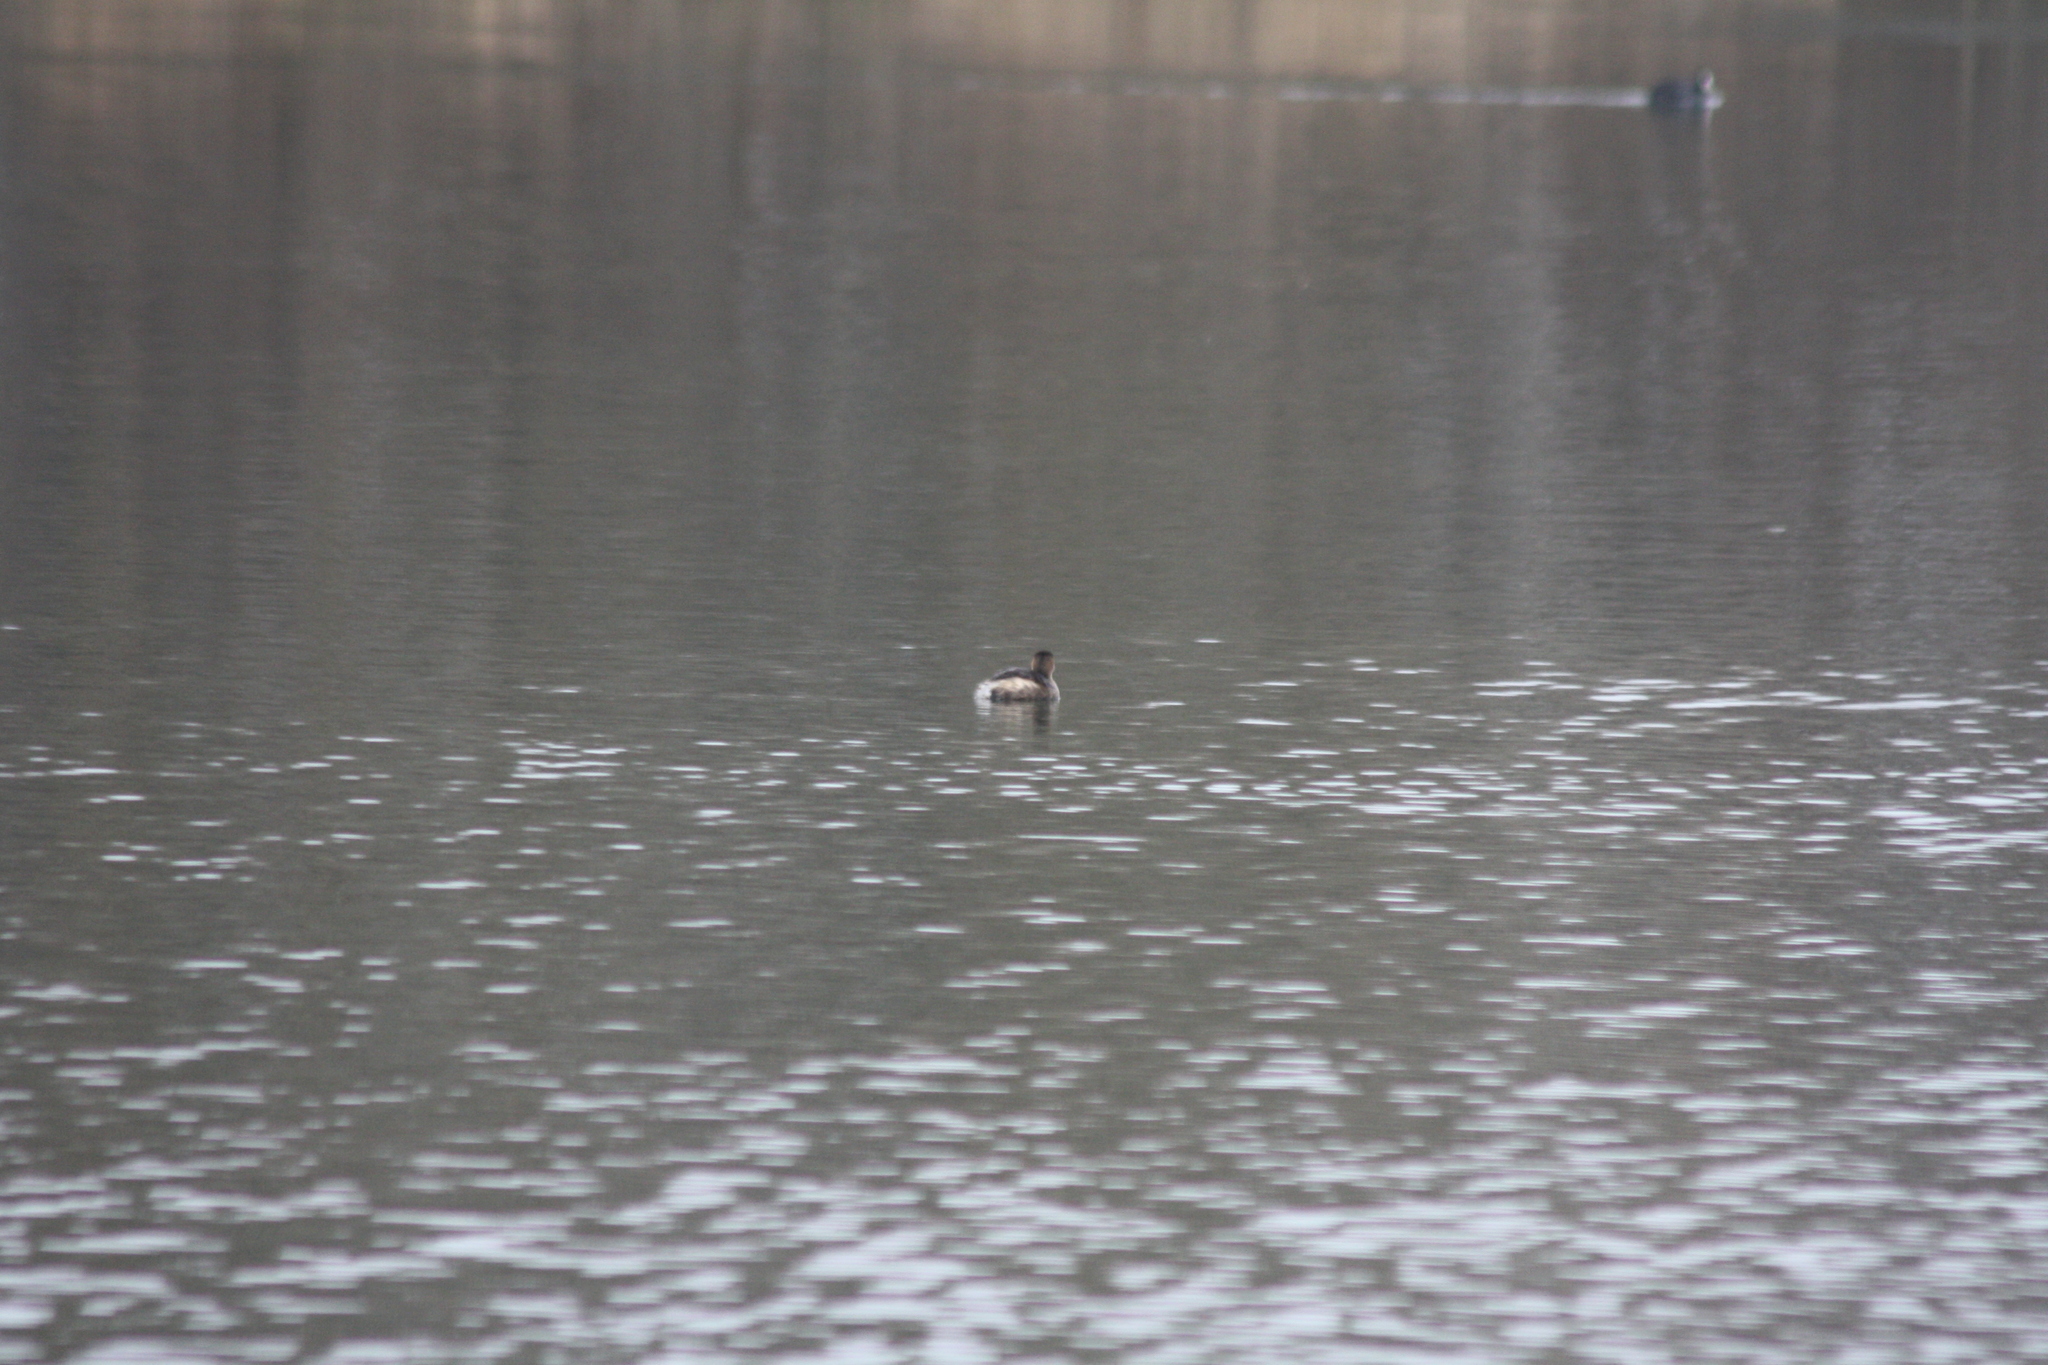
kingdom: Animalia
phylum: Chordata
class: Aves
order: Podicipediformes
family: Podicipedidae
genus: Tachybaptus
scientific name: Tachybaptus ruficollis
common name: Little grebe
